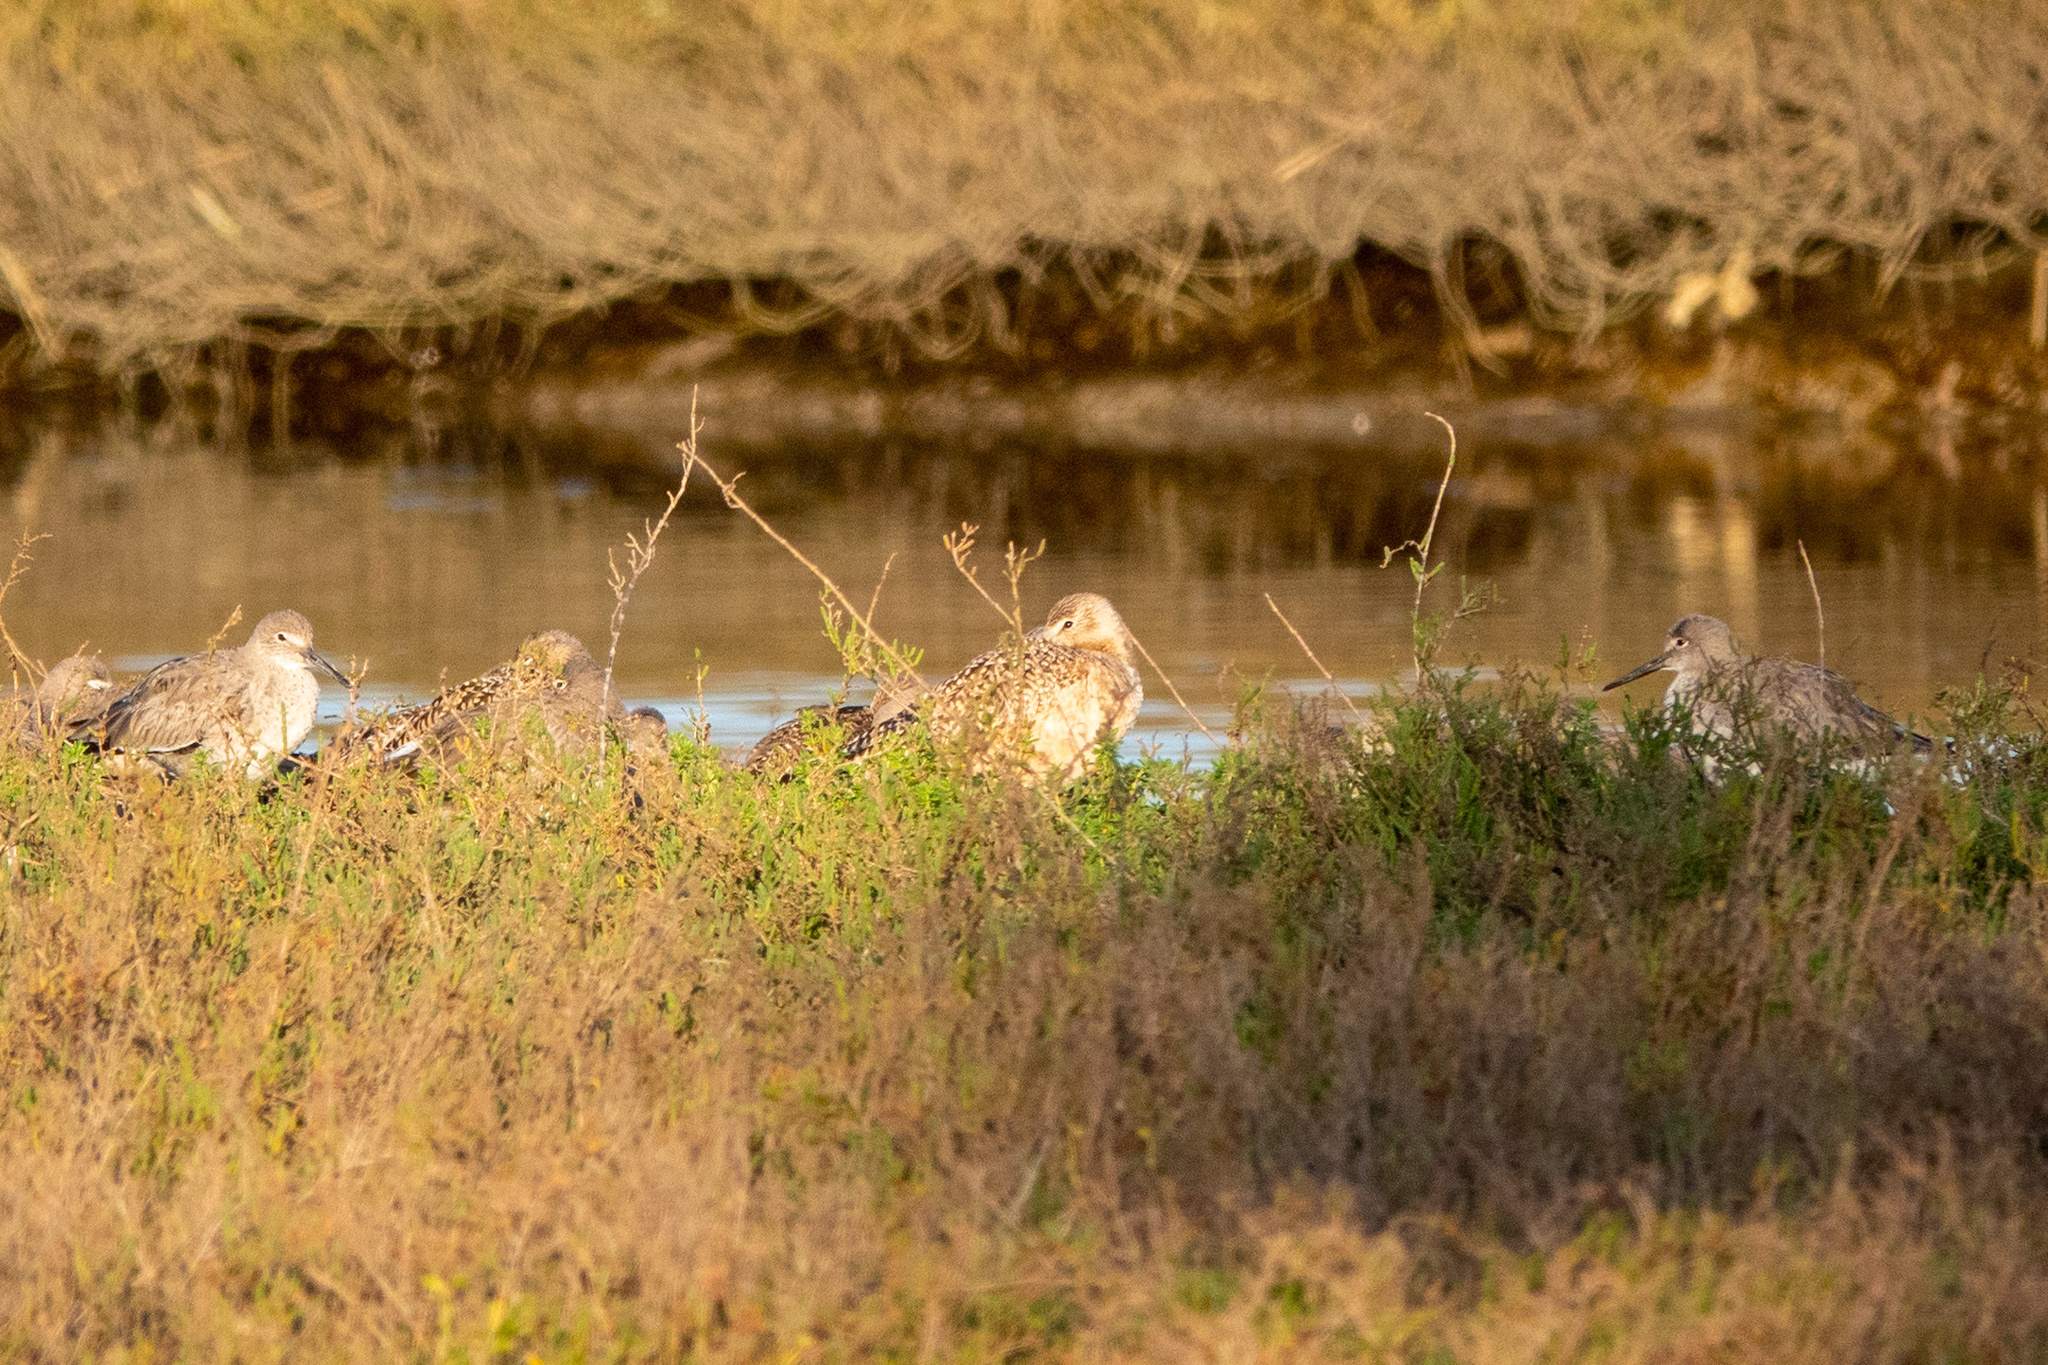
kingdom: Animalia
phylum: Chordata
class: Aves
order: Charadriiformes
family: Scolopacidae
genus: Tringa
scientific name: Tringa semipalmata
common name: Willet
